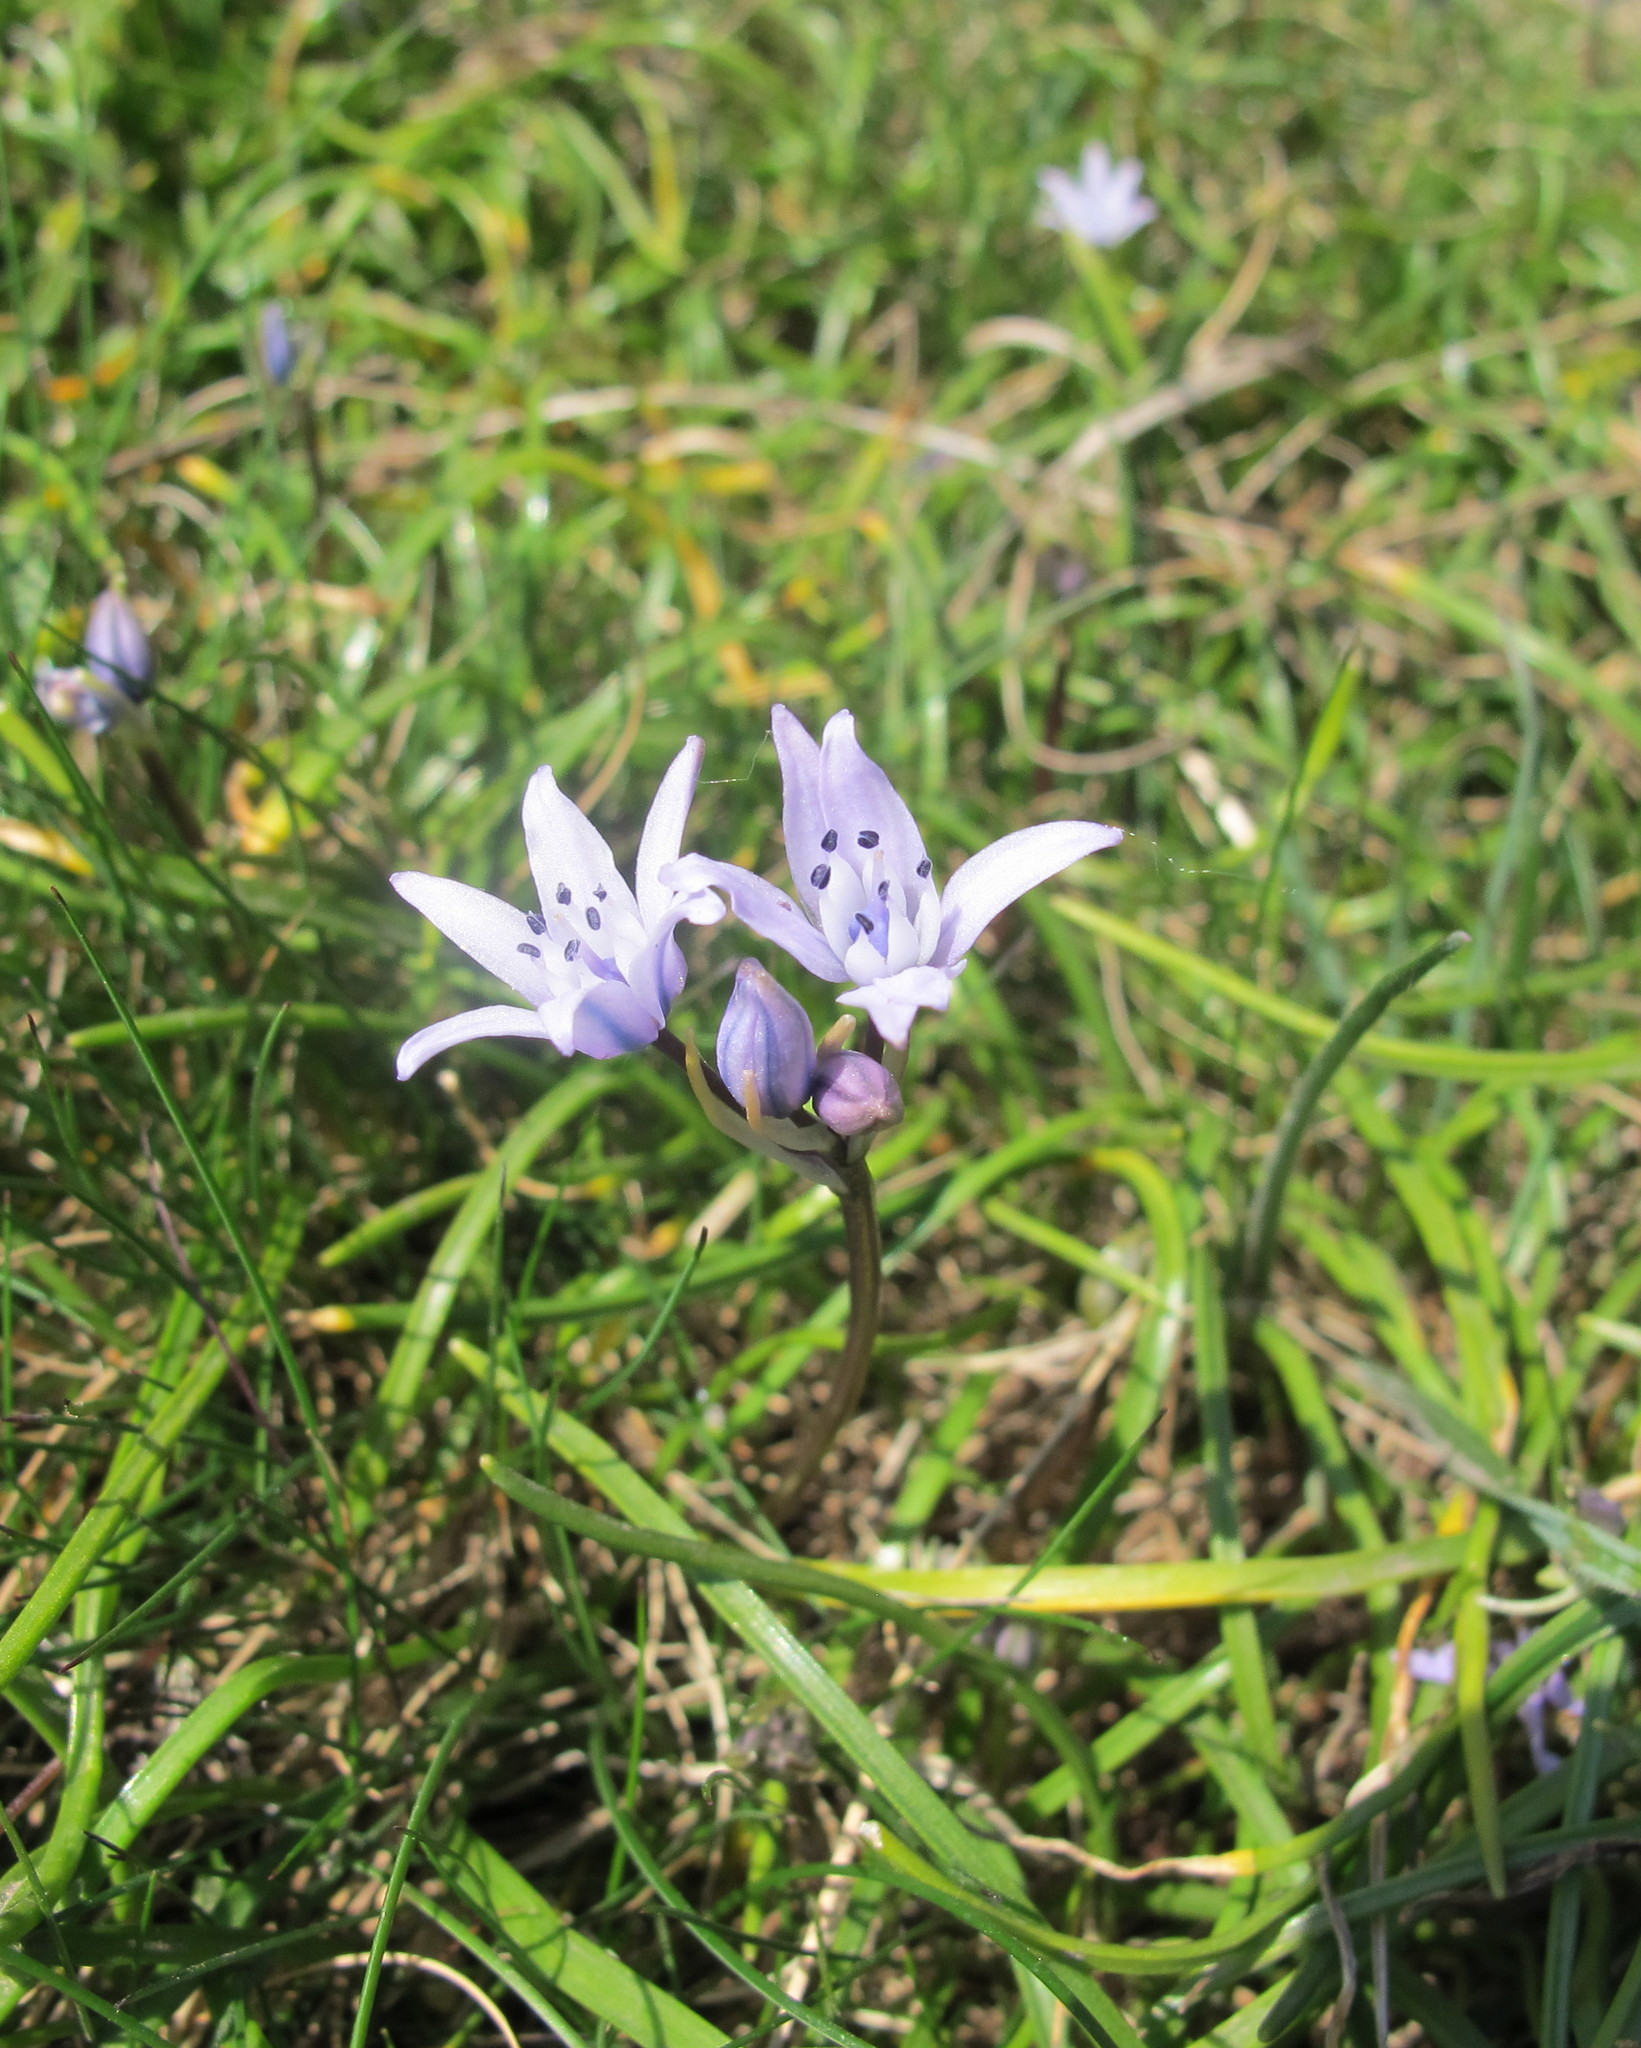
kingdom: Plantae
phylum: Tracheophyta
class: Liliopsida
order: Asparagales
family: Asparagaceae
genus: Scilla
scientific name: Scilla verna
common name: Spring squill
